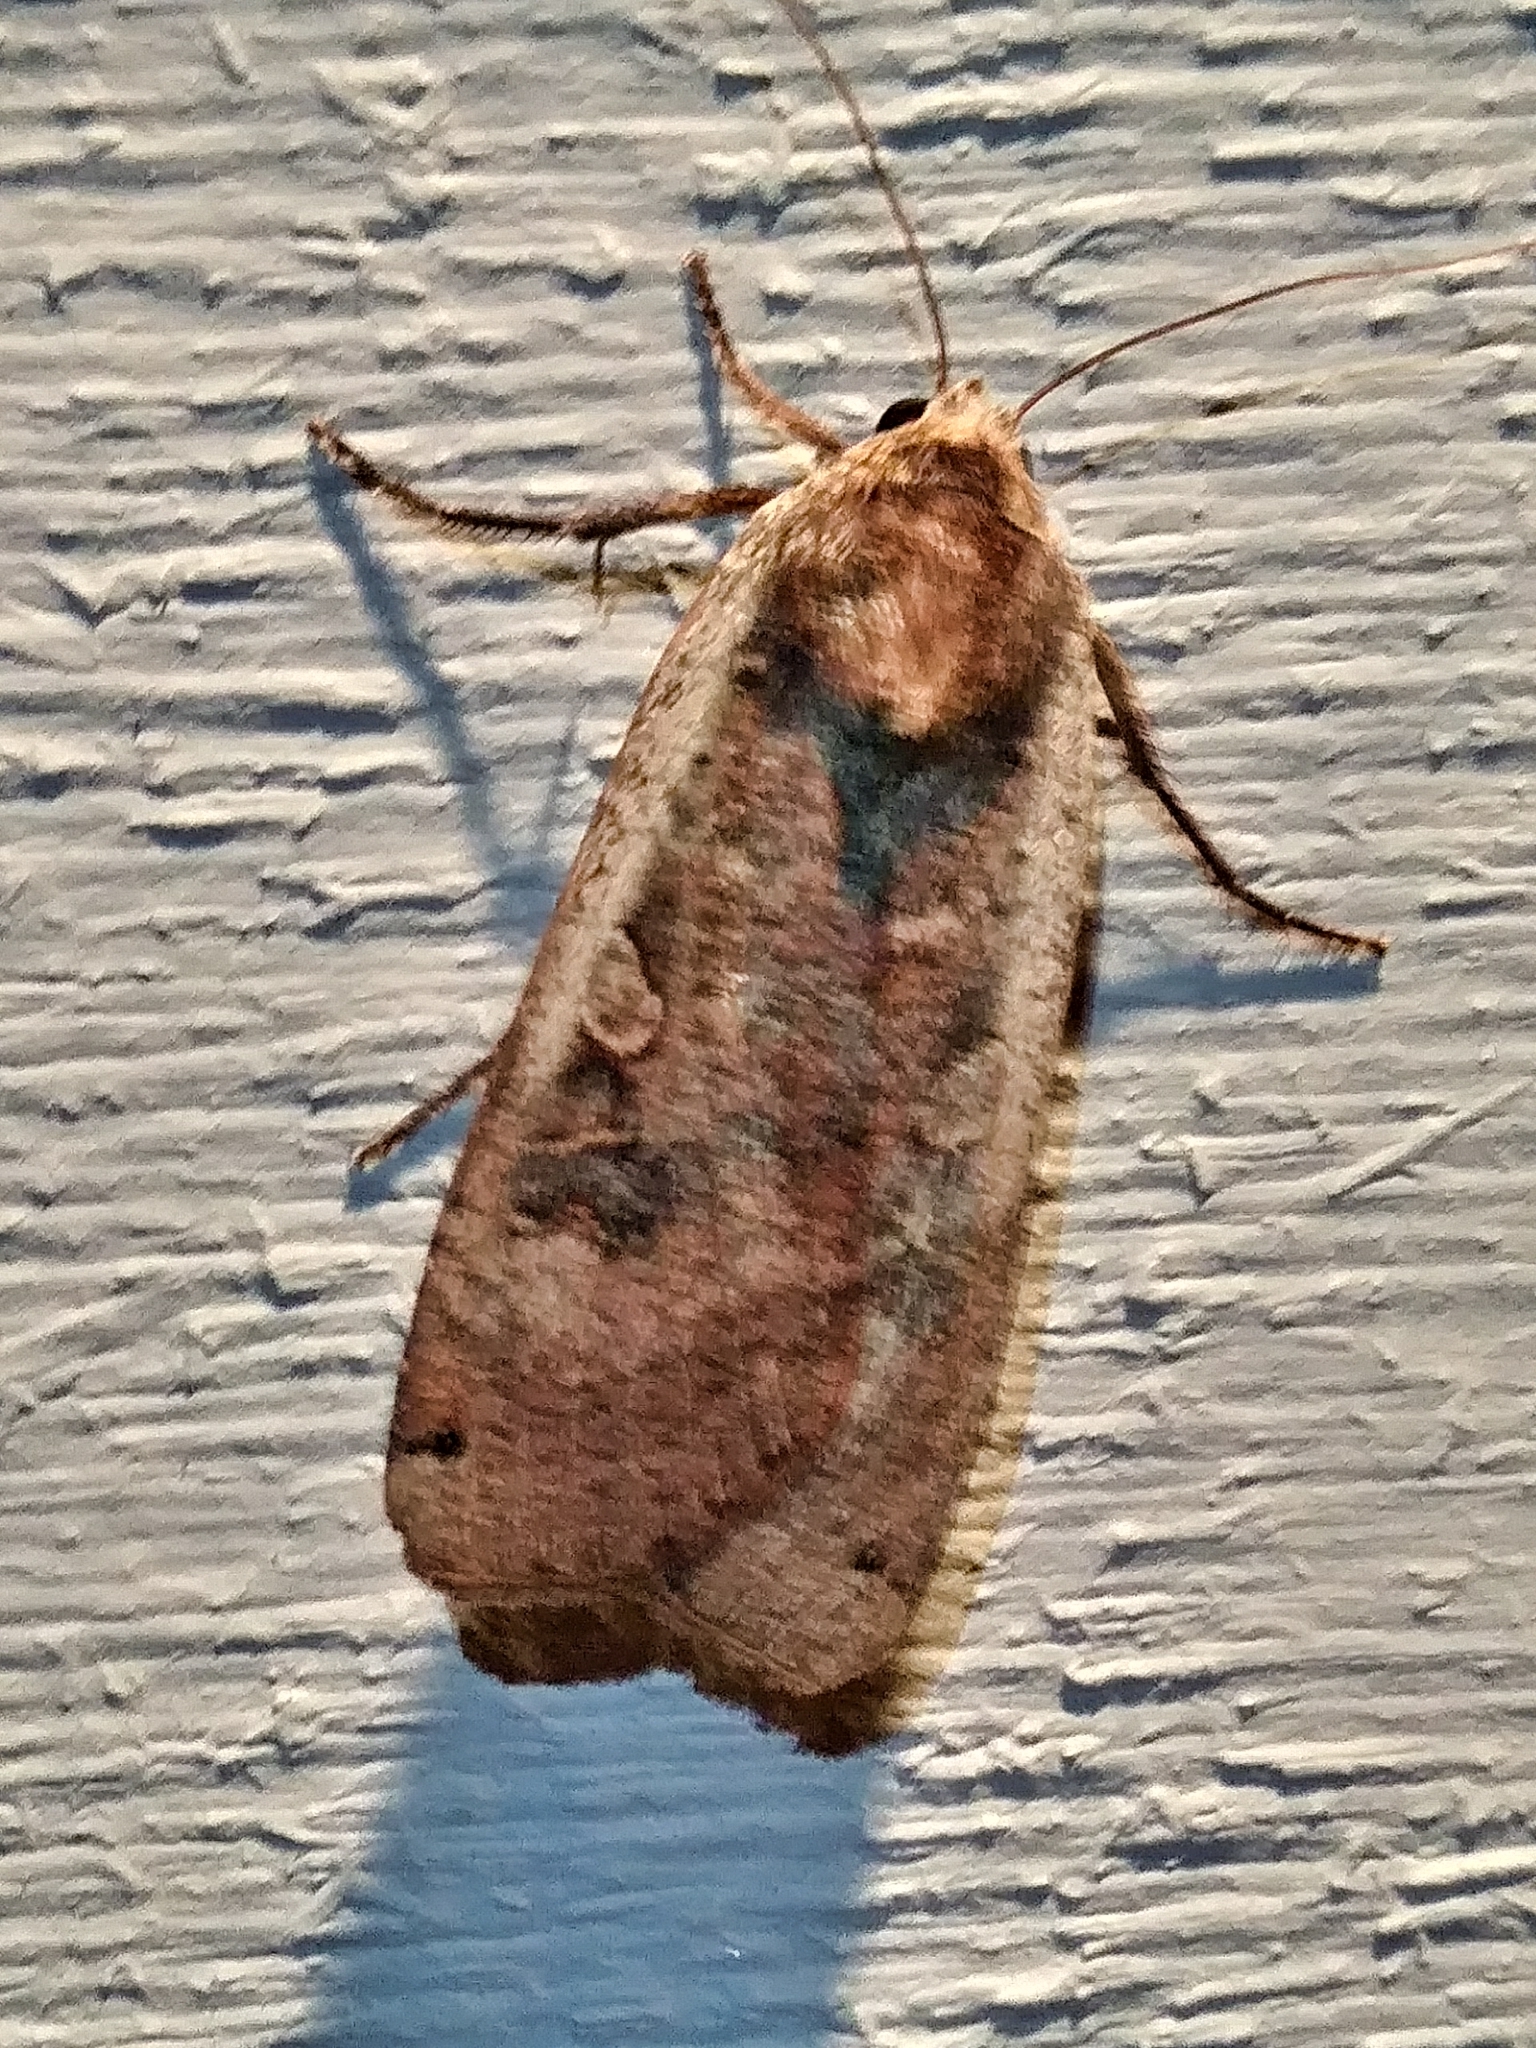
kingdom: Animalia
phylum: Arthropoda
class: Insecta
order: Lepidoptera
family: Noctuidae
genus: Noctua
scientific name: Noctua pronuba
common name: Large yellow underwing
